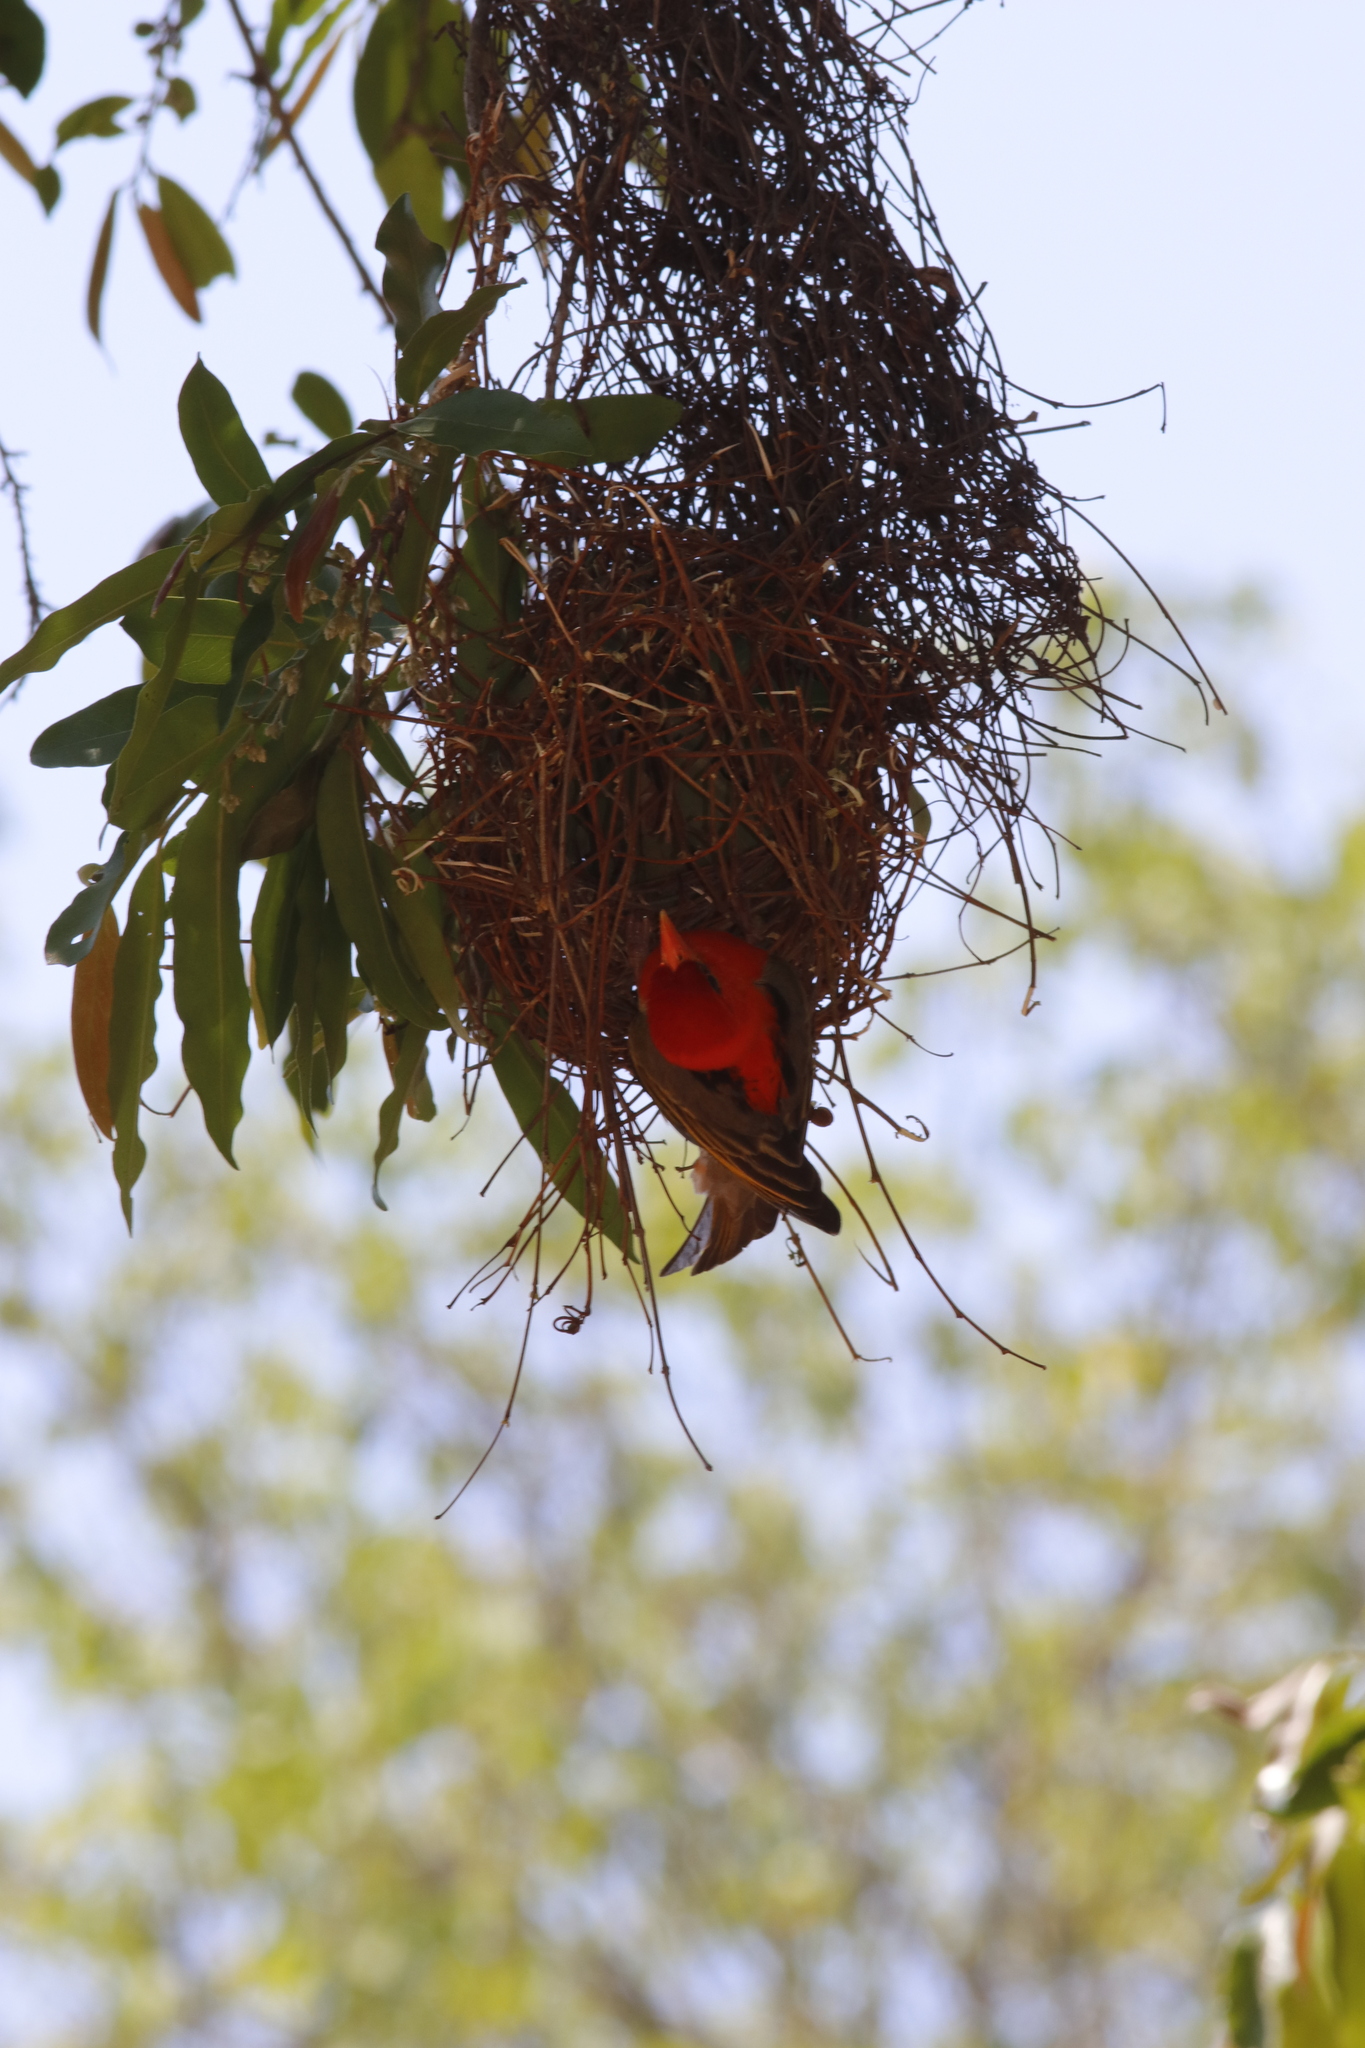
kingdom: Animalia
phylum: Chordata
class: Aves
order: Passeriformes
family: Ploceidae
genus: Anaplectes
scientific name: Anaplectes rubriceps
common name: Red-headed weaver
